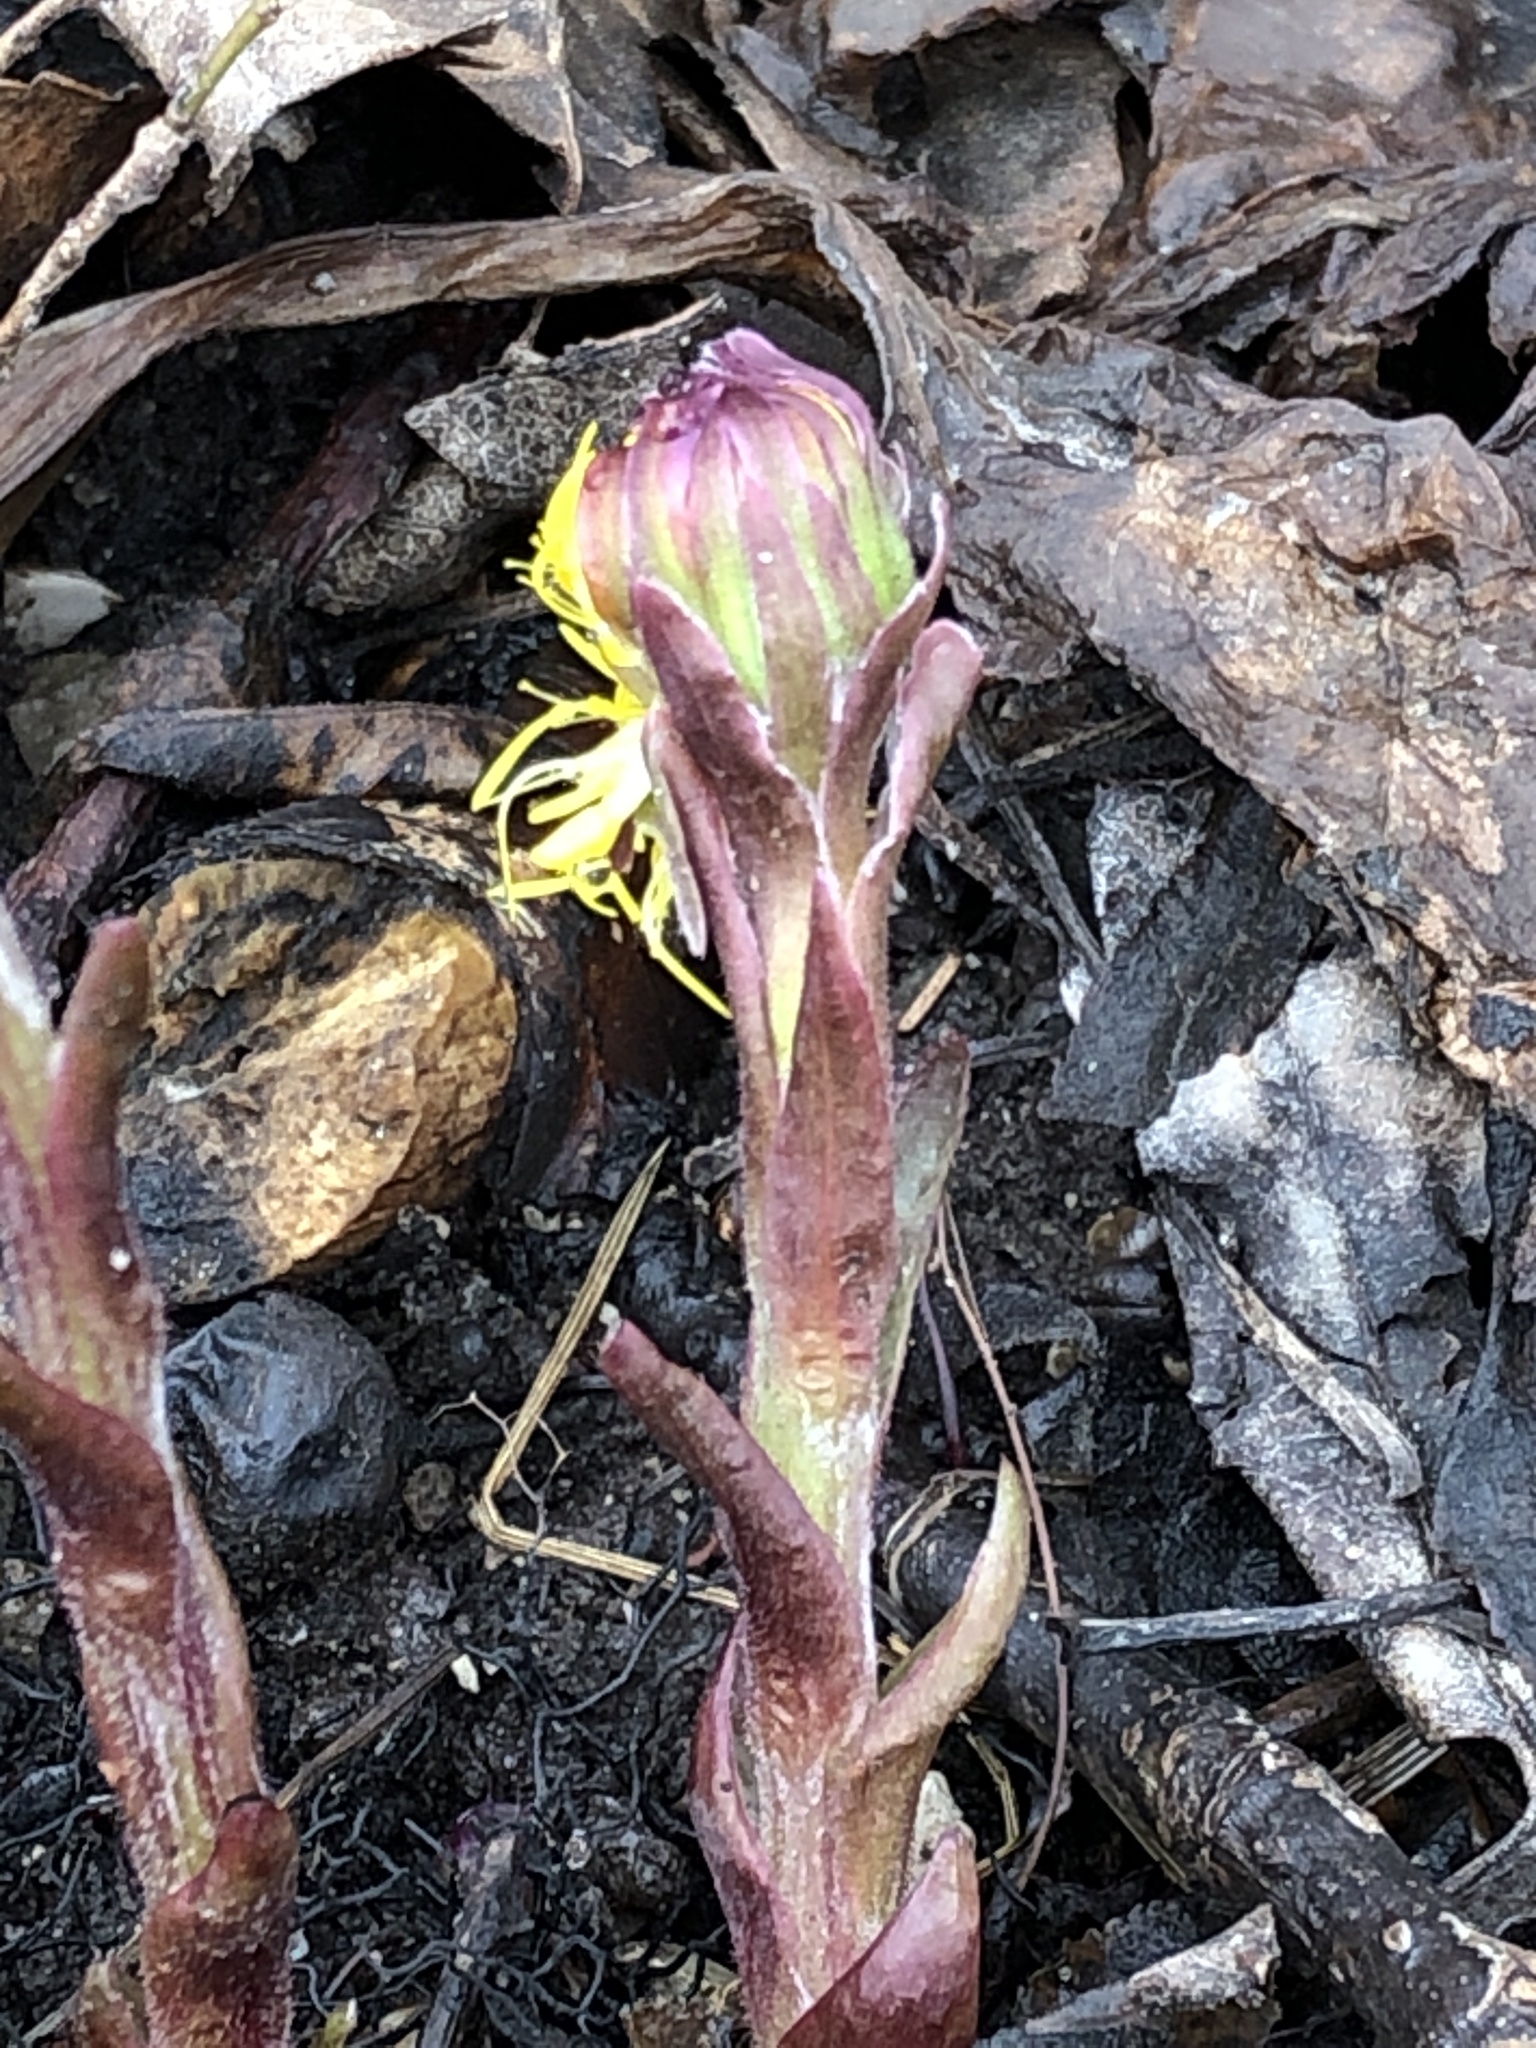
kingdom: Plantae
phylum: Tracheophyta
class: Magnoliopsida
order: Asterales
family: Asteraceae
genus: Tussilago
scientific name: Tussilago farfara
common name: Coltsfoot
